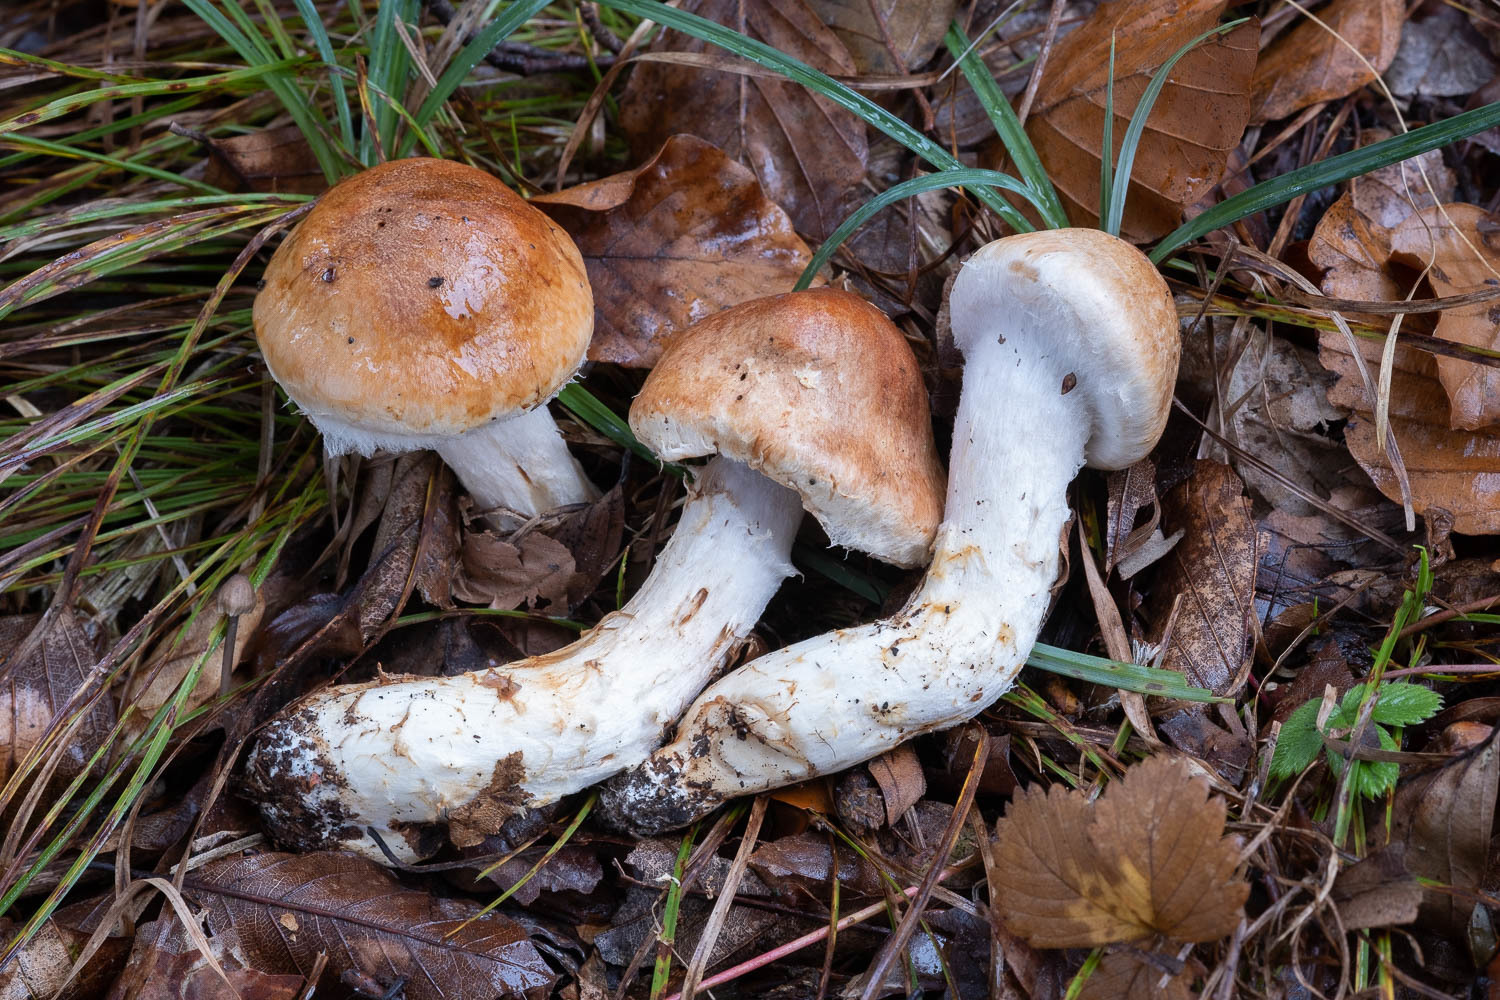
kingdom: Fungi
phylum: Basidiomycota
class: Agaricomycetes
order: Agaricales
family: Cortinariaceae
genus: Phlegmacium
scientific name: Phlegmacium vulpinum
